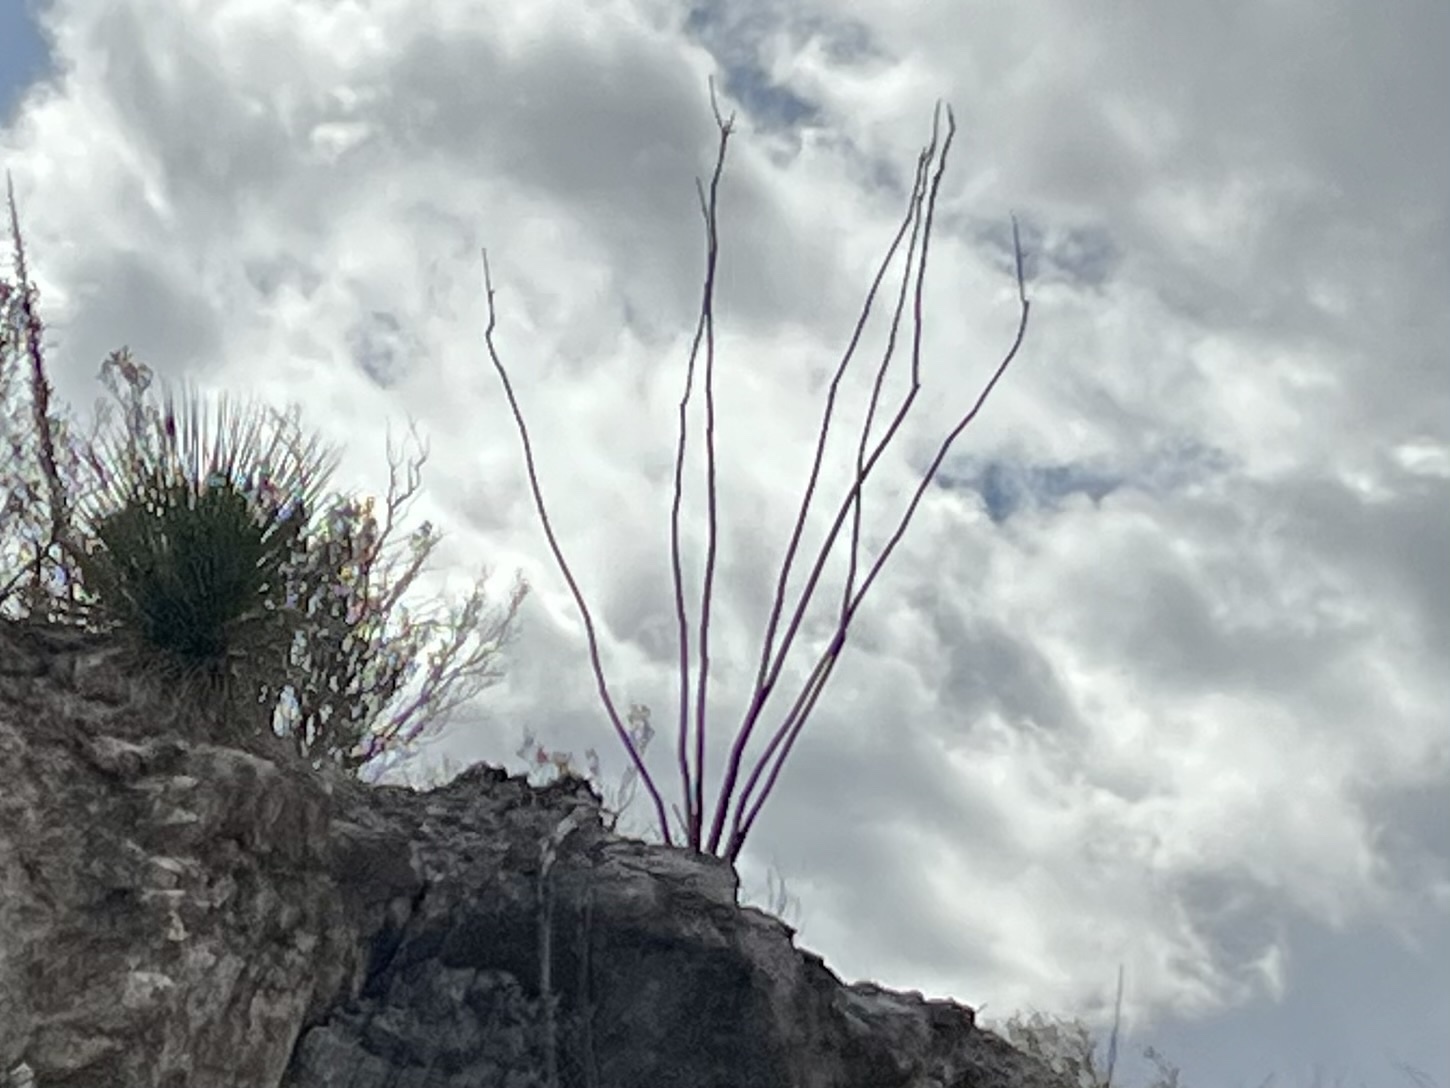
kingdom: Plantae
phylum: Tracheophyta
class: Magnoliopsida
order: Ericales
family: Fouquieriaceae
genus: Fouquieria
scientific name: Fouquieria splendens
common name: Vine-cactus
